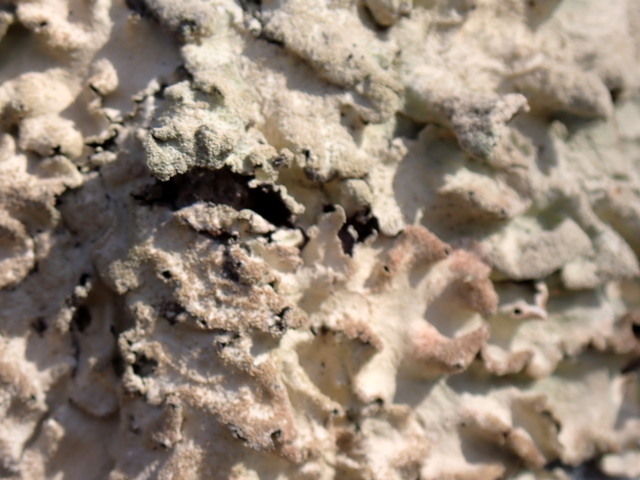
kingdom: Fungi
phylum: Ascomycota
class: Lecanoromycetes
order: Lecanorales
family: Parmeliaceae
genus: Parmotrema
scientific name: Parmotrema tinctorum
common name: Old gray ruffles
